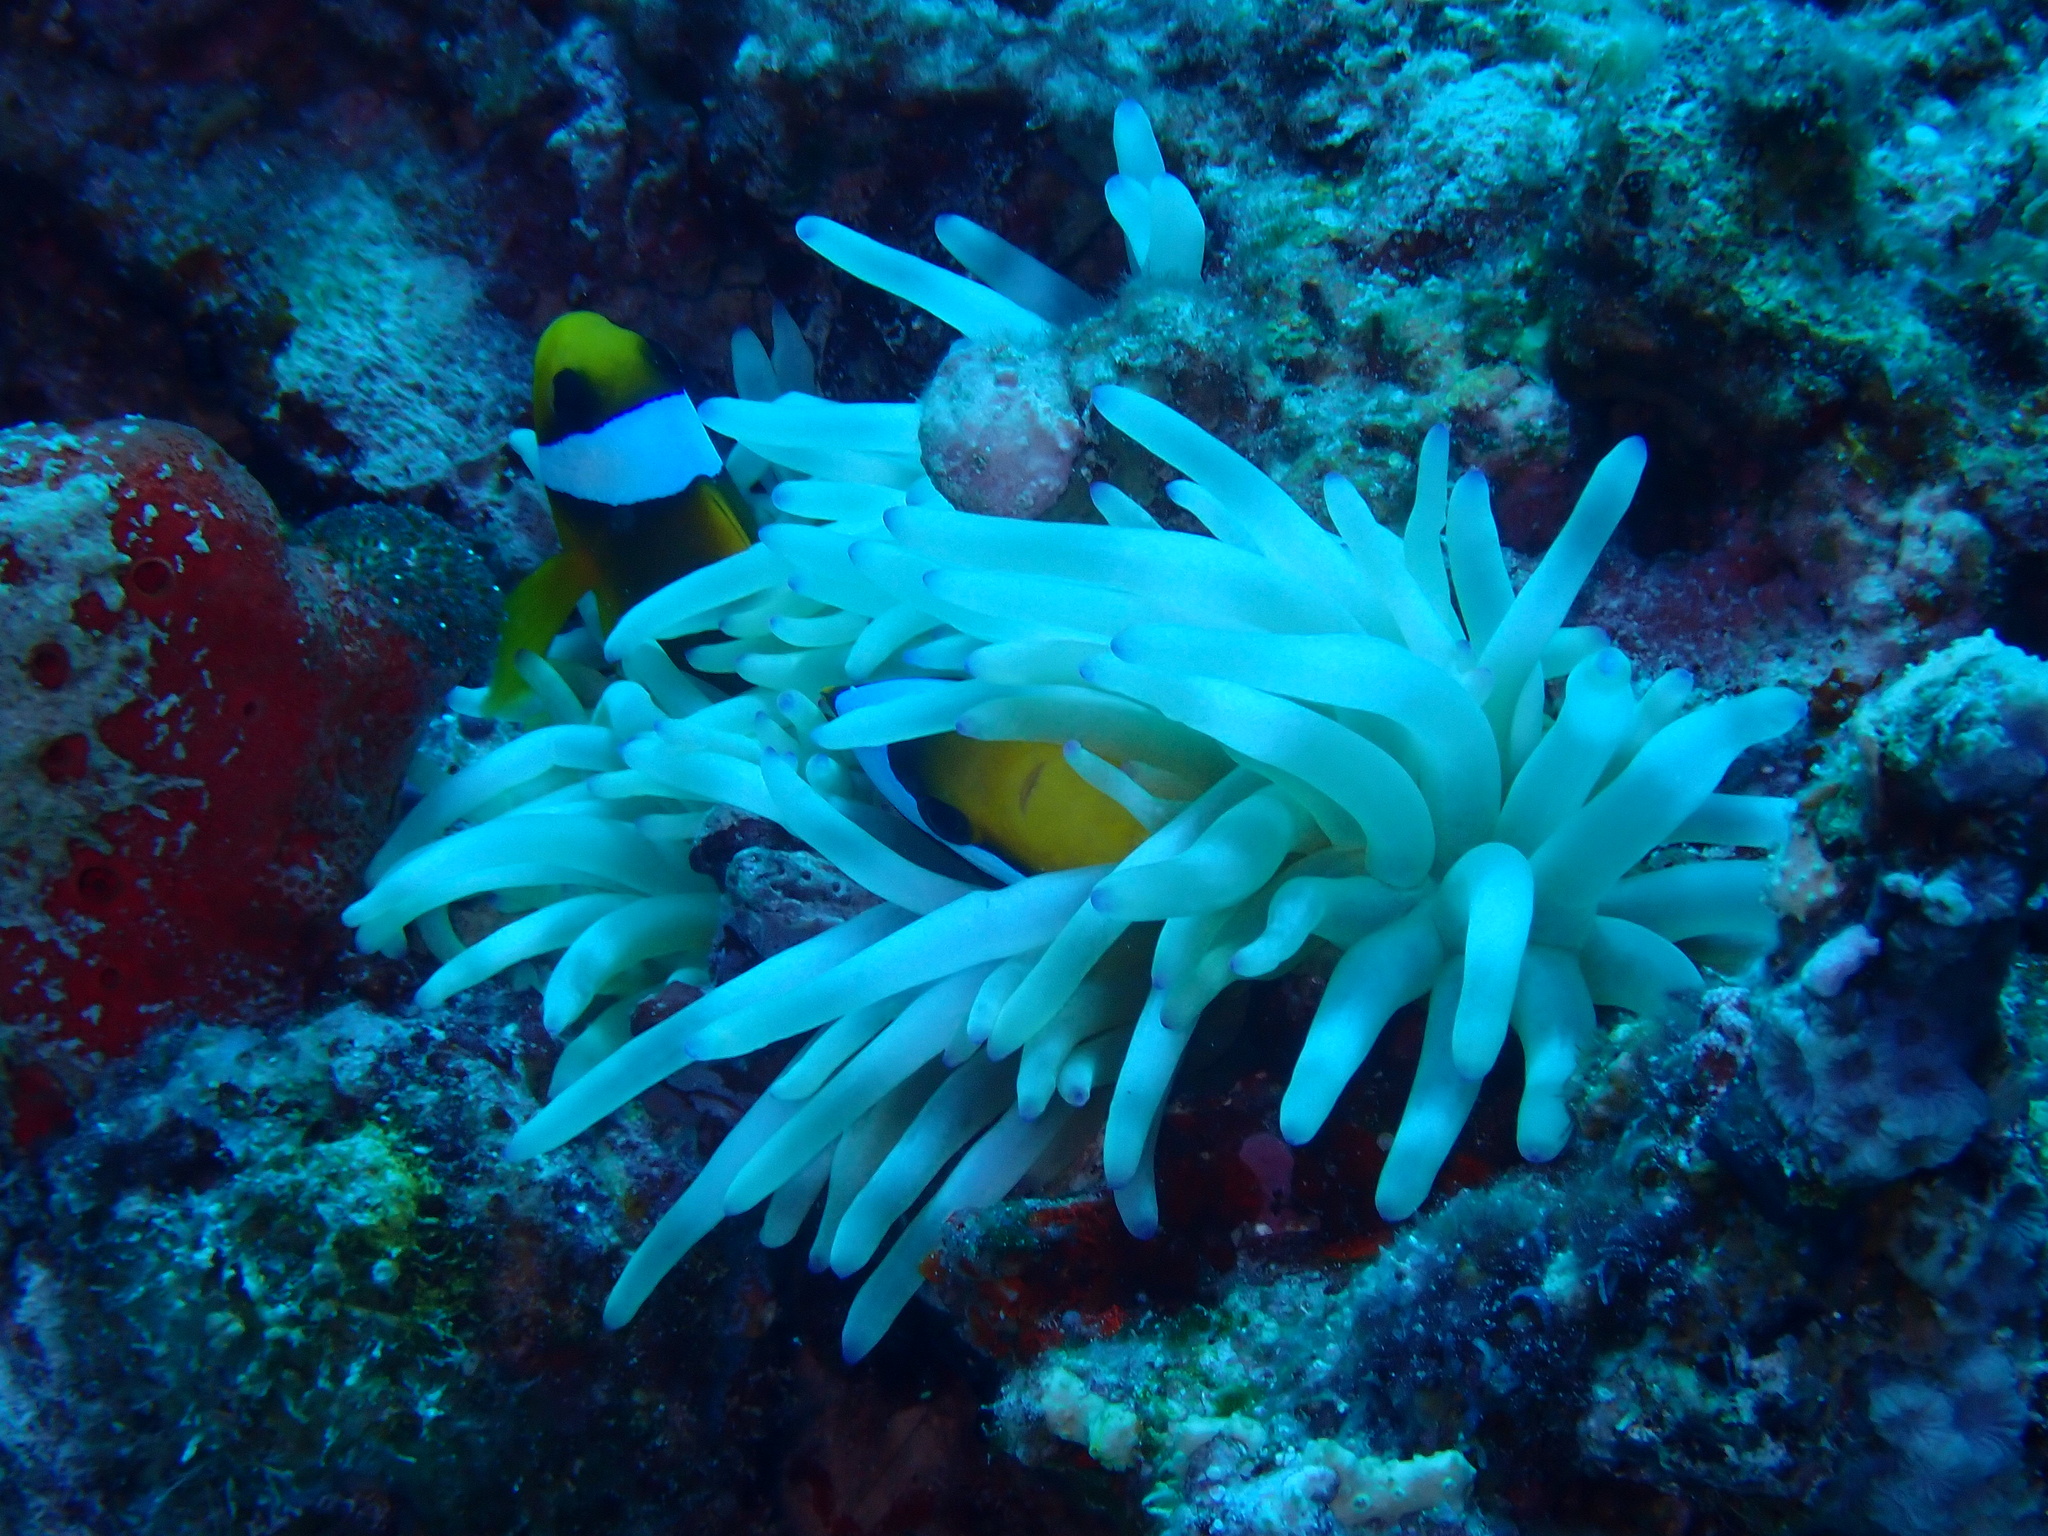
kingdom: Animalia
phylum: Chordata
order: Perciformes
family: Pomacentridae
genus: Amphiprion
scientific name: Amphiprion bicinctus
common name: Two-banded anemonefish
